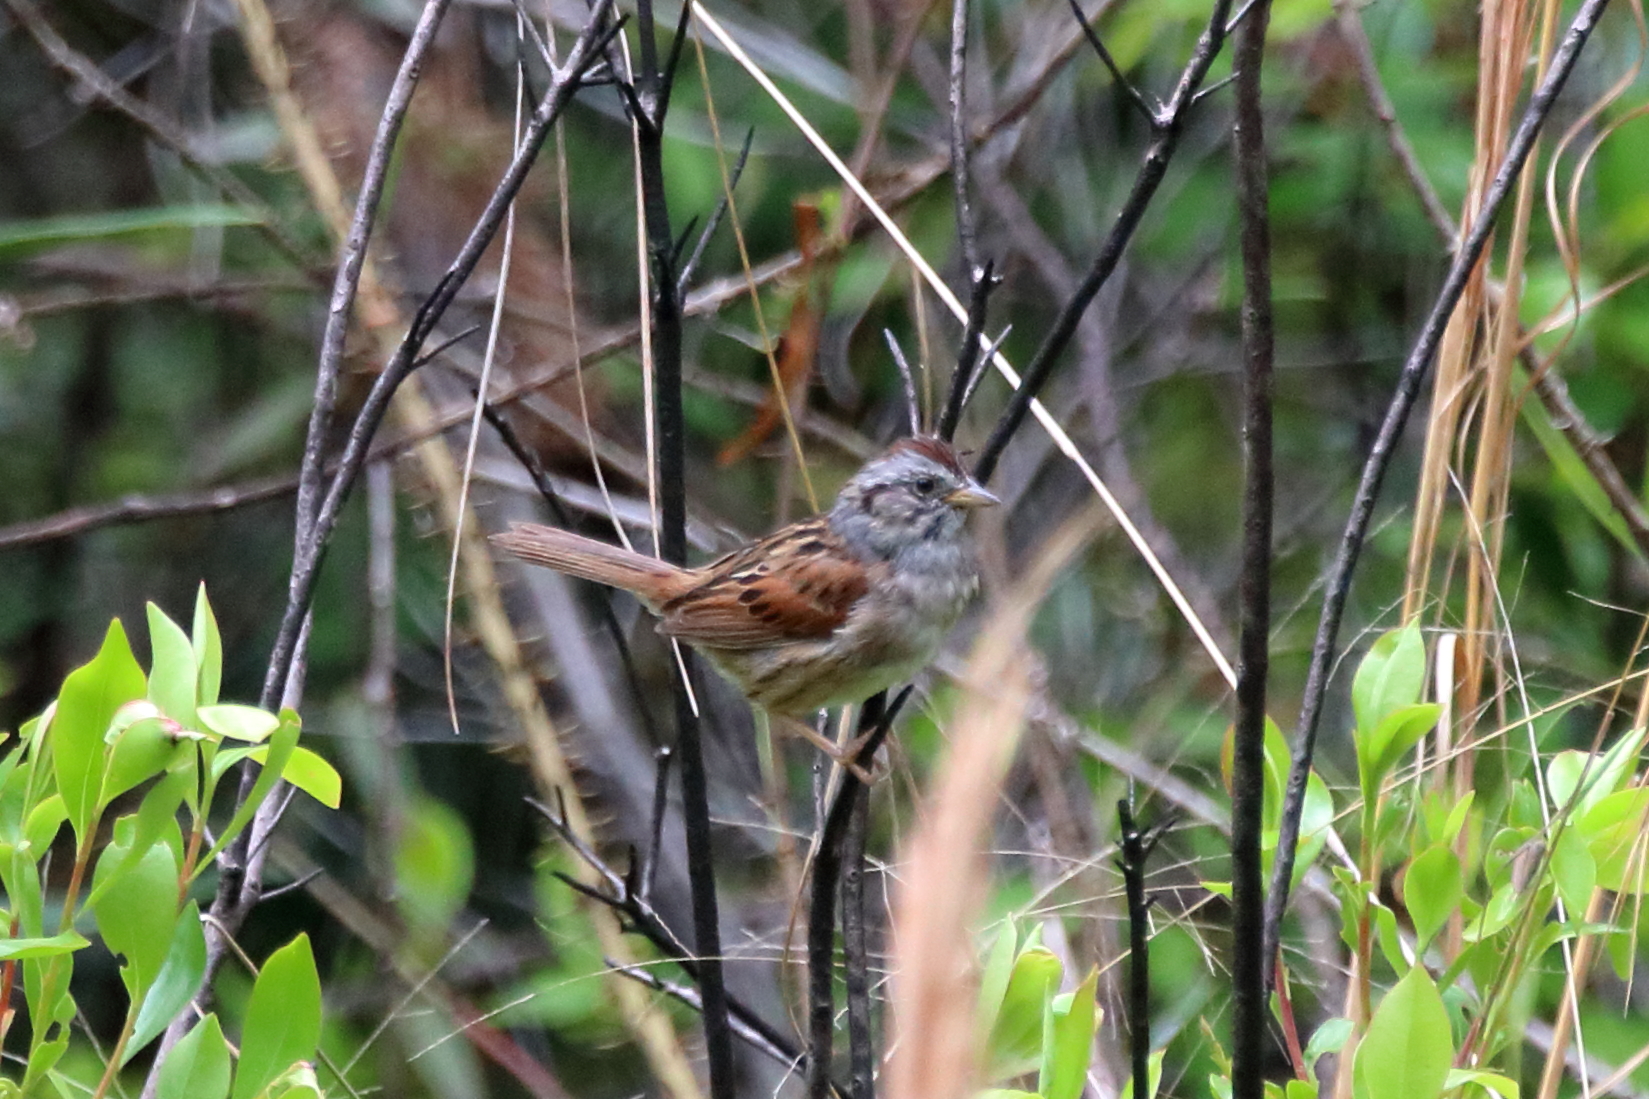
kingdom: Animalia
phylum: Chordata
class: Aves
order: Passeriformes
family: Passerellidae
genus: Melospiza
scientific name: Melospiza georgiana
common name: Swamp sparrow
